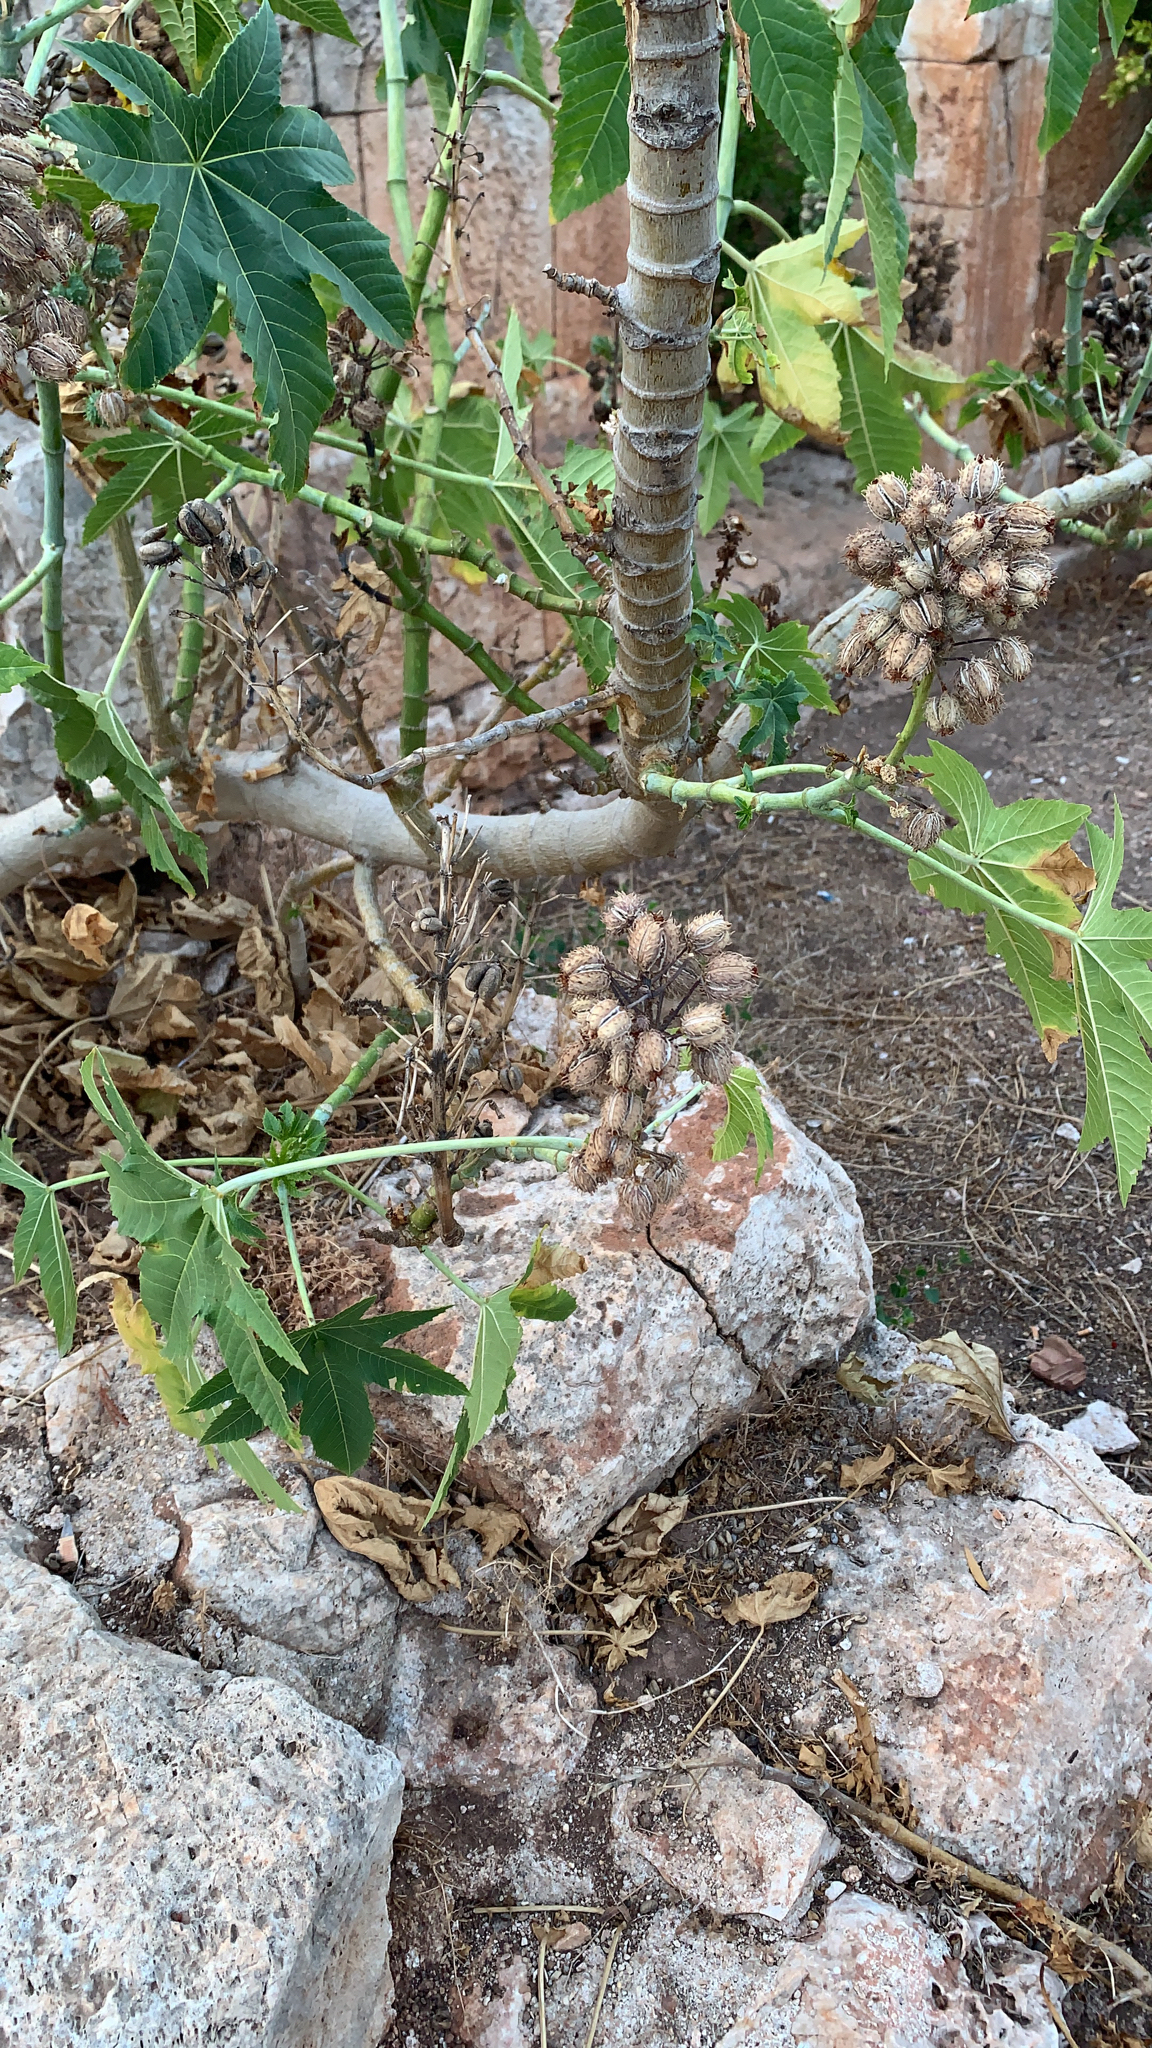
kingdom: Plantae
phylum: Tracheophyta
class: Magnoliopsida
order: Malpighiales
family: Euphorbiaceae
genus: Ricinus
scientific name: Ricinus communis
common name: Castor-oil-plant
